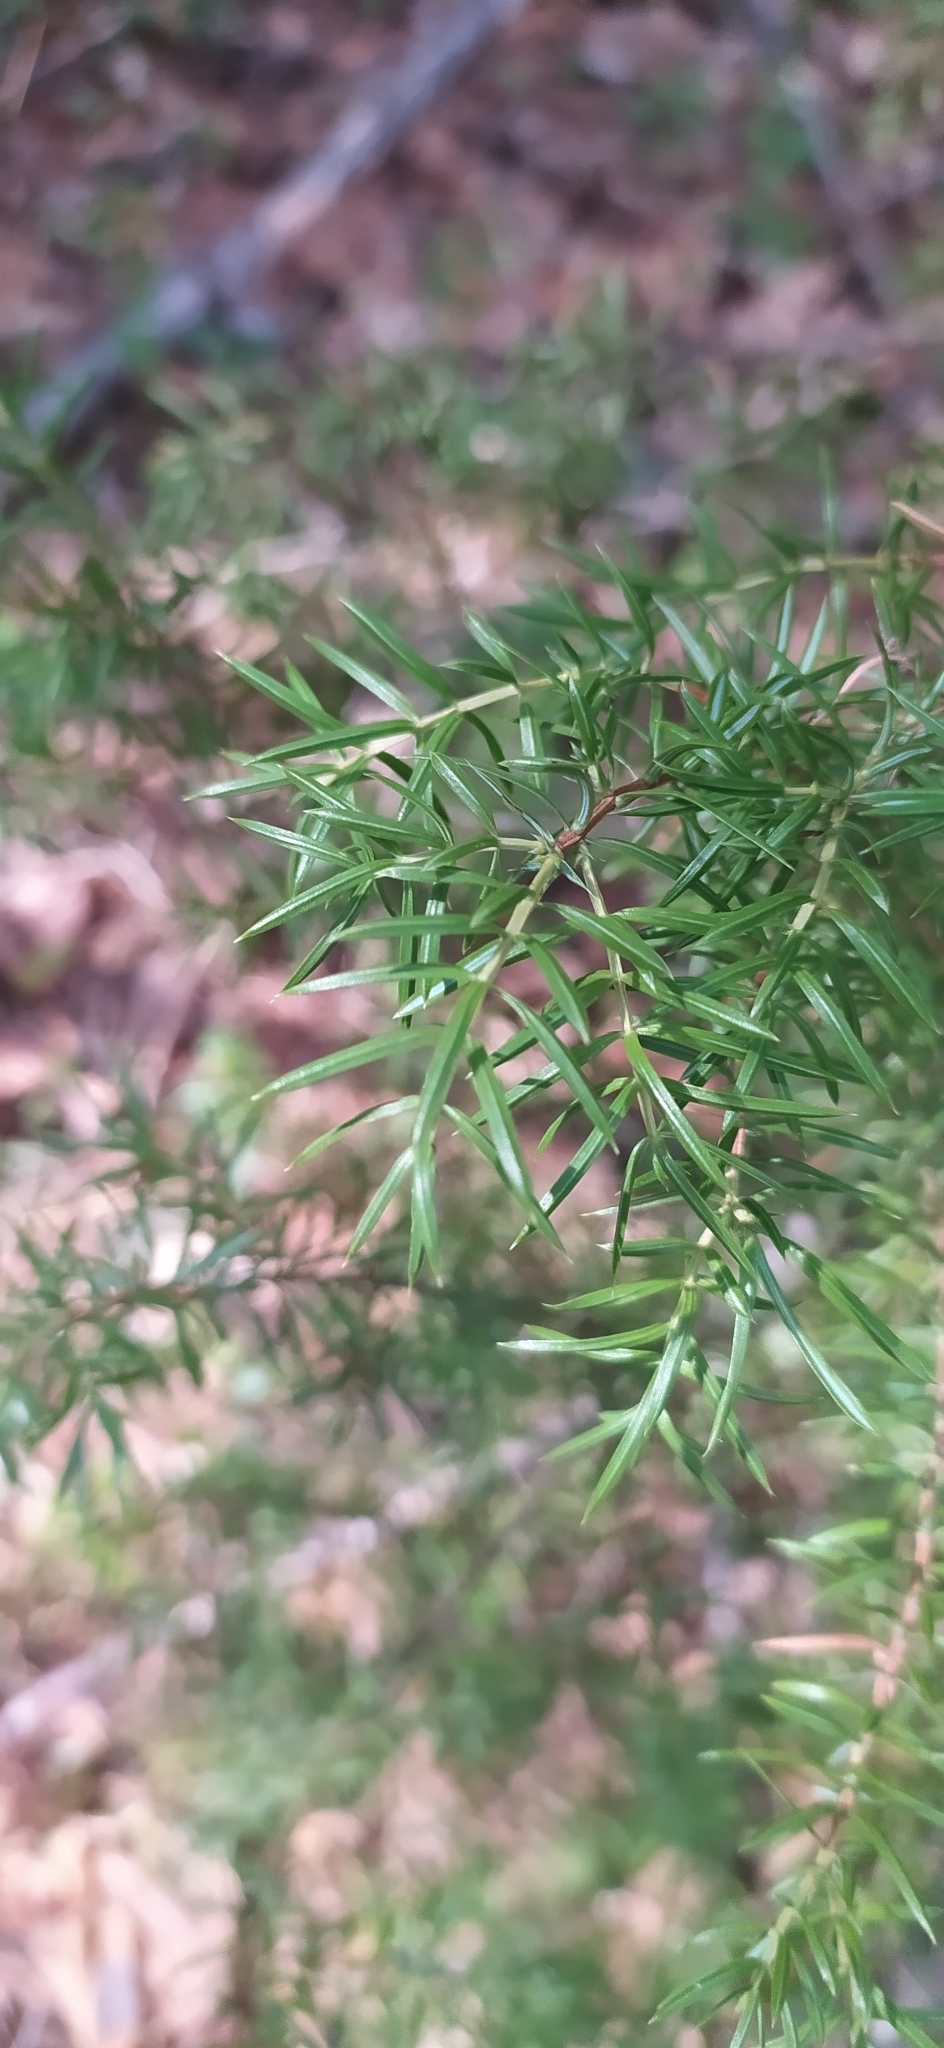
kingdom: Plantae
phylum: Tracheophyta
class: Pinopsida
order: Pinales
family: Cupressaceae
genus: Juniperus
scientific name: Juniperus communis
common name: Common juniper
